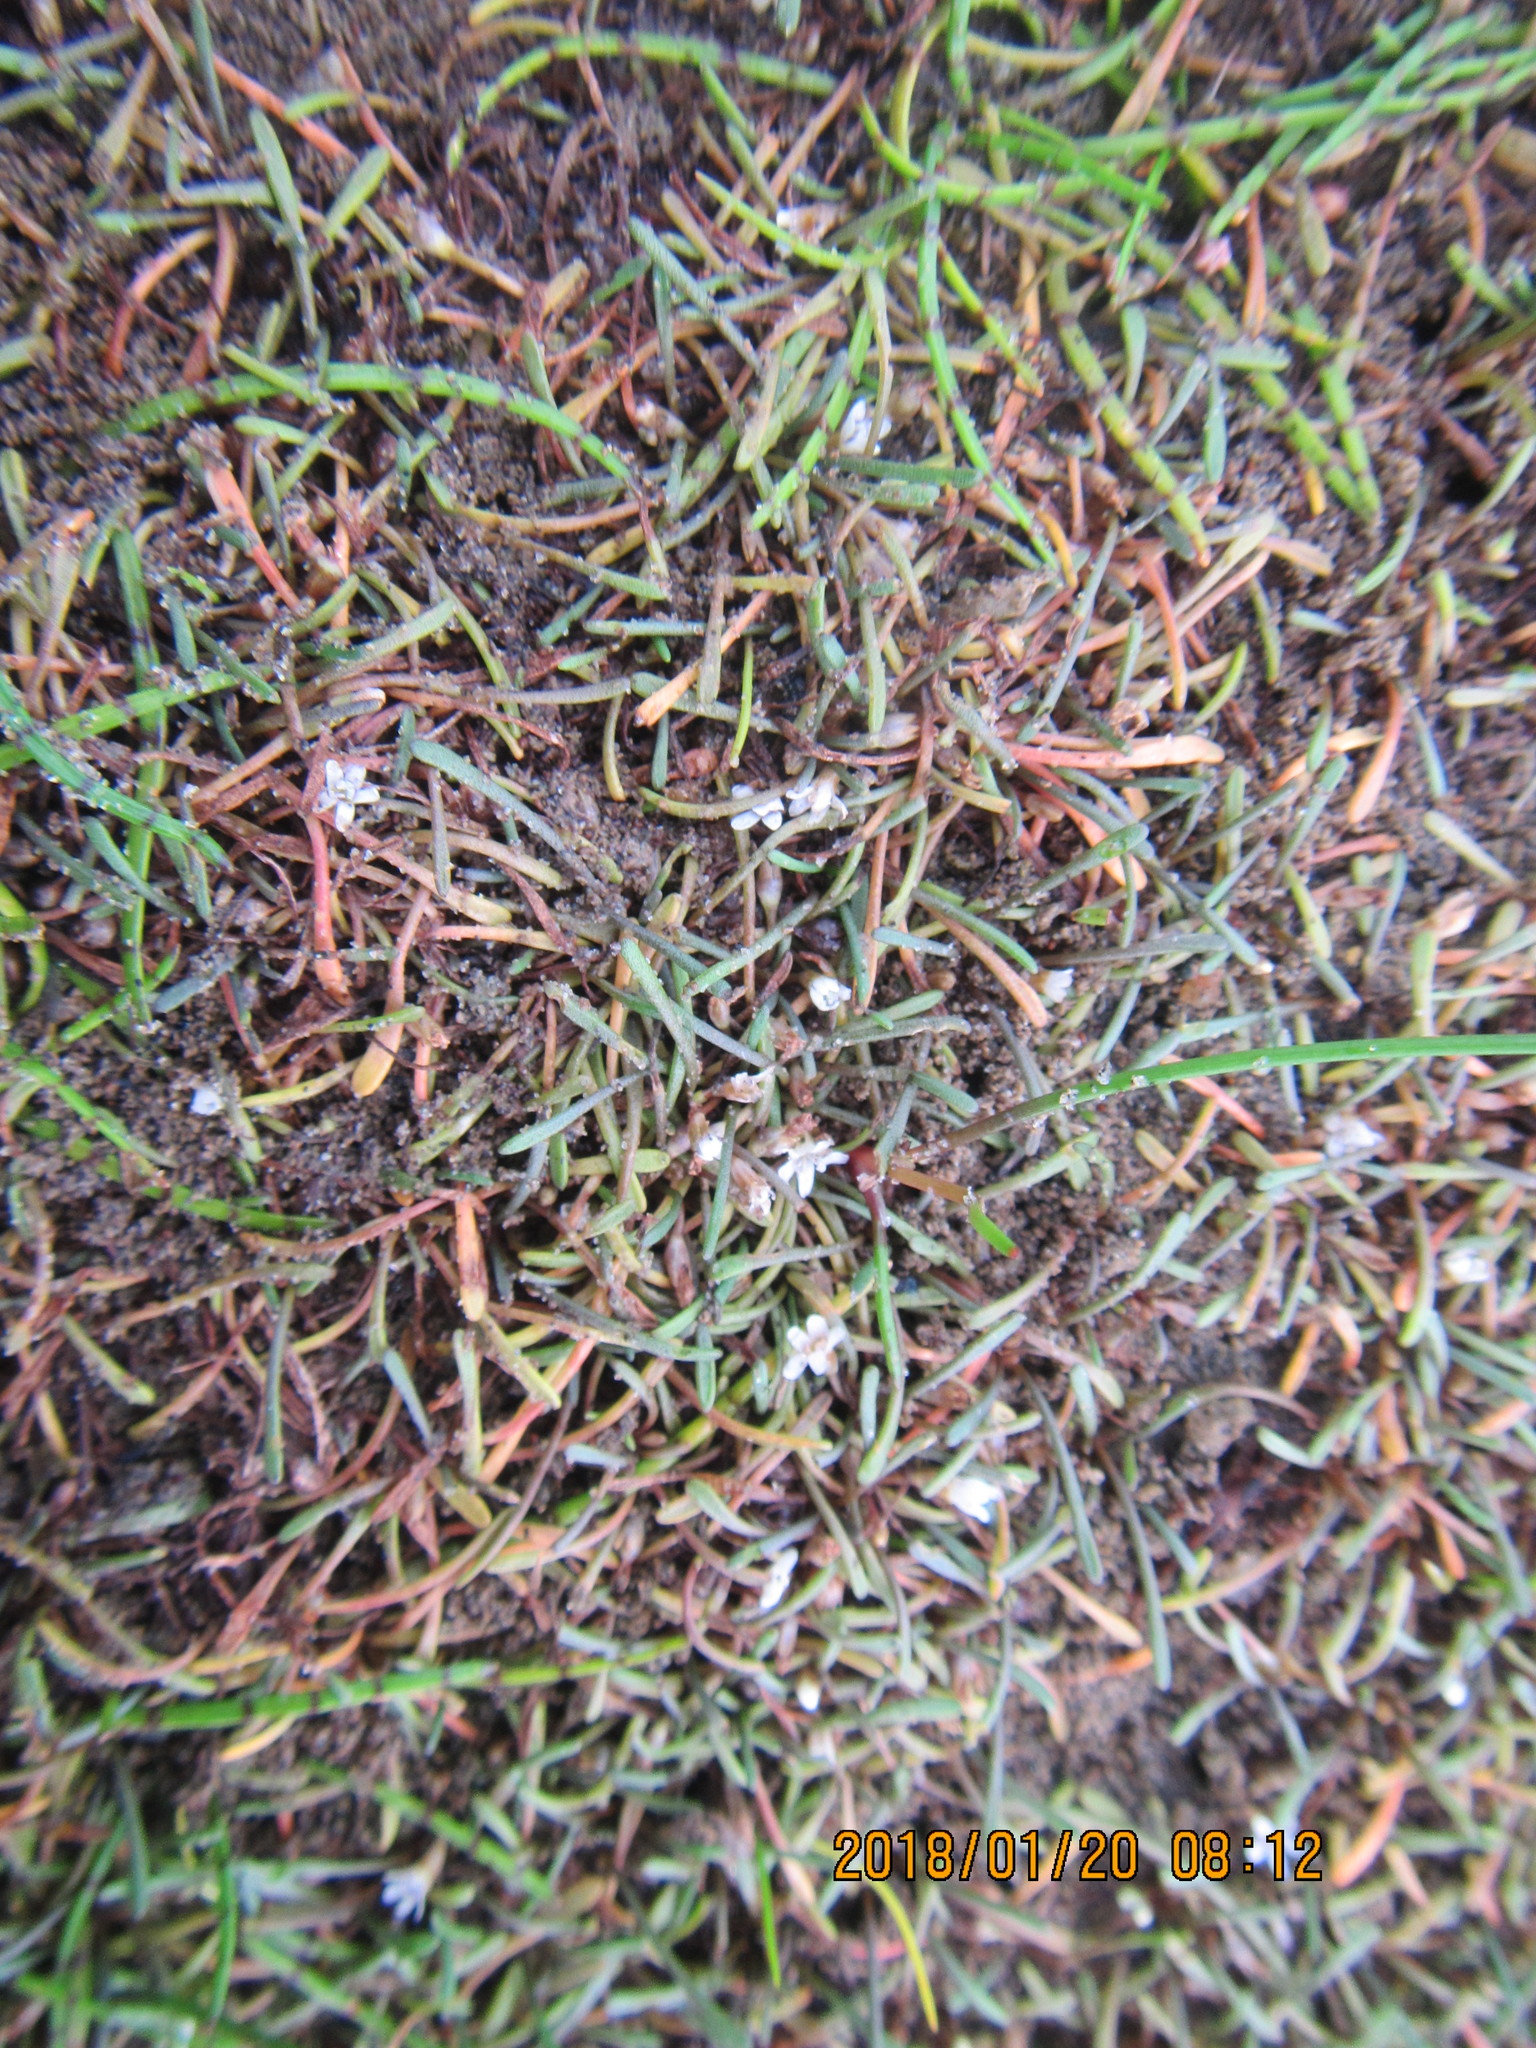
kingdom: Plantae
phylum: Tracheophyta
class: Magnoliopsida
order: Lamiales
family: Scrophulariaceae
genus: Limosella
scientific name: Limosella australis
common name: Welsh mudwort
